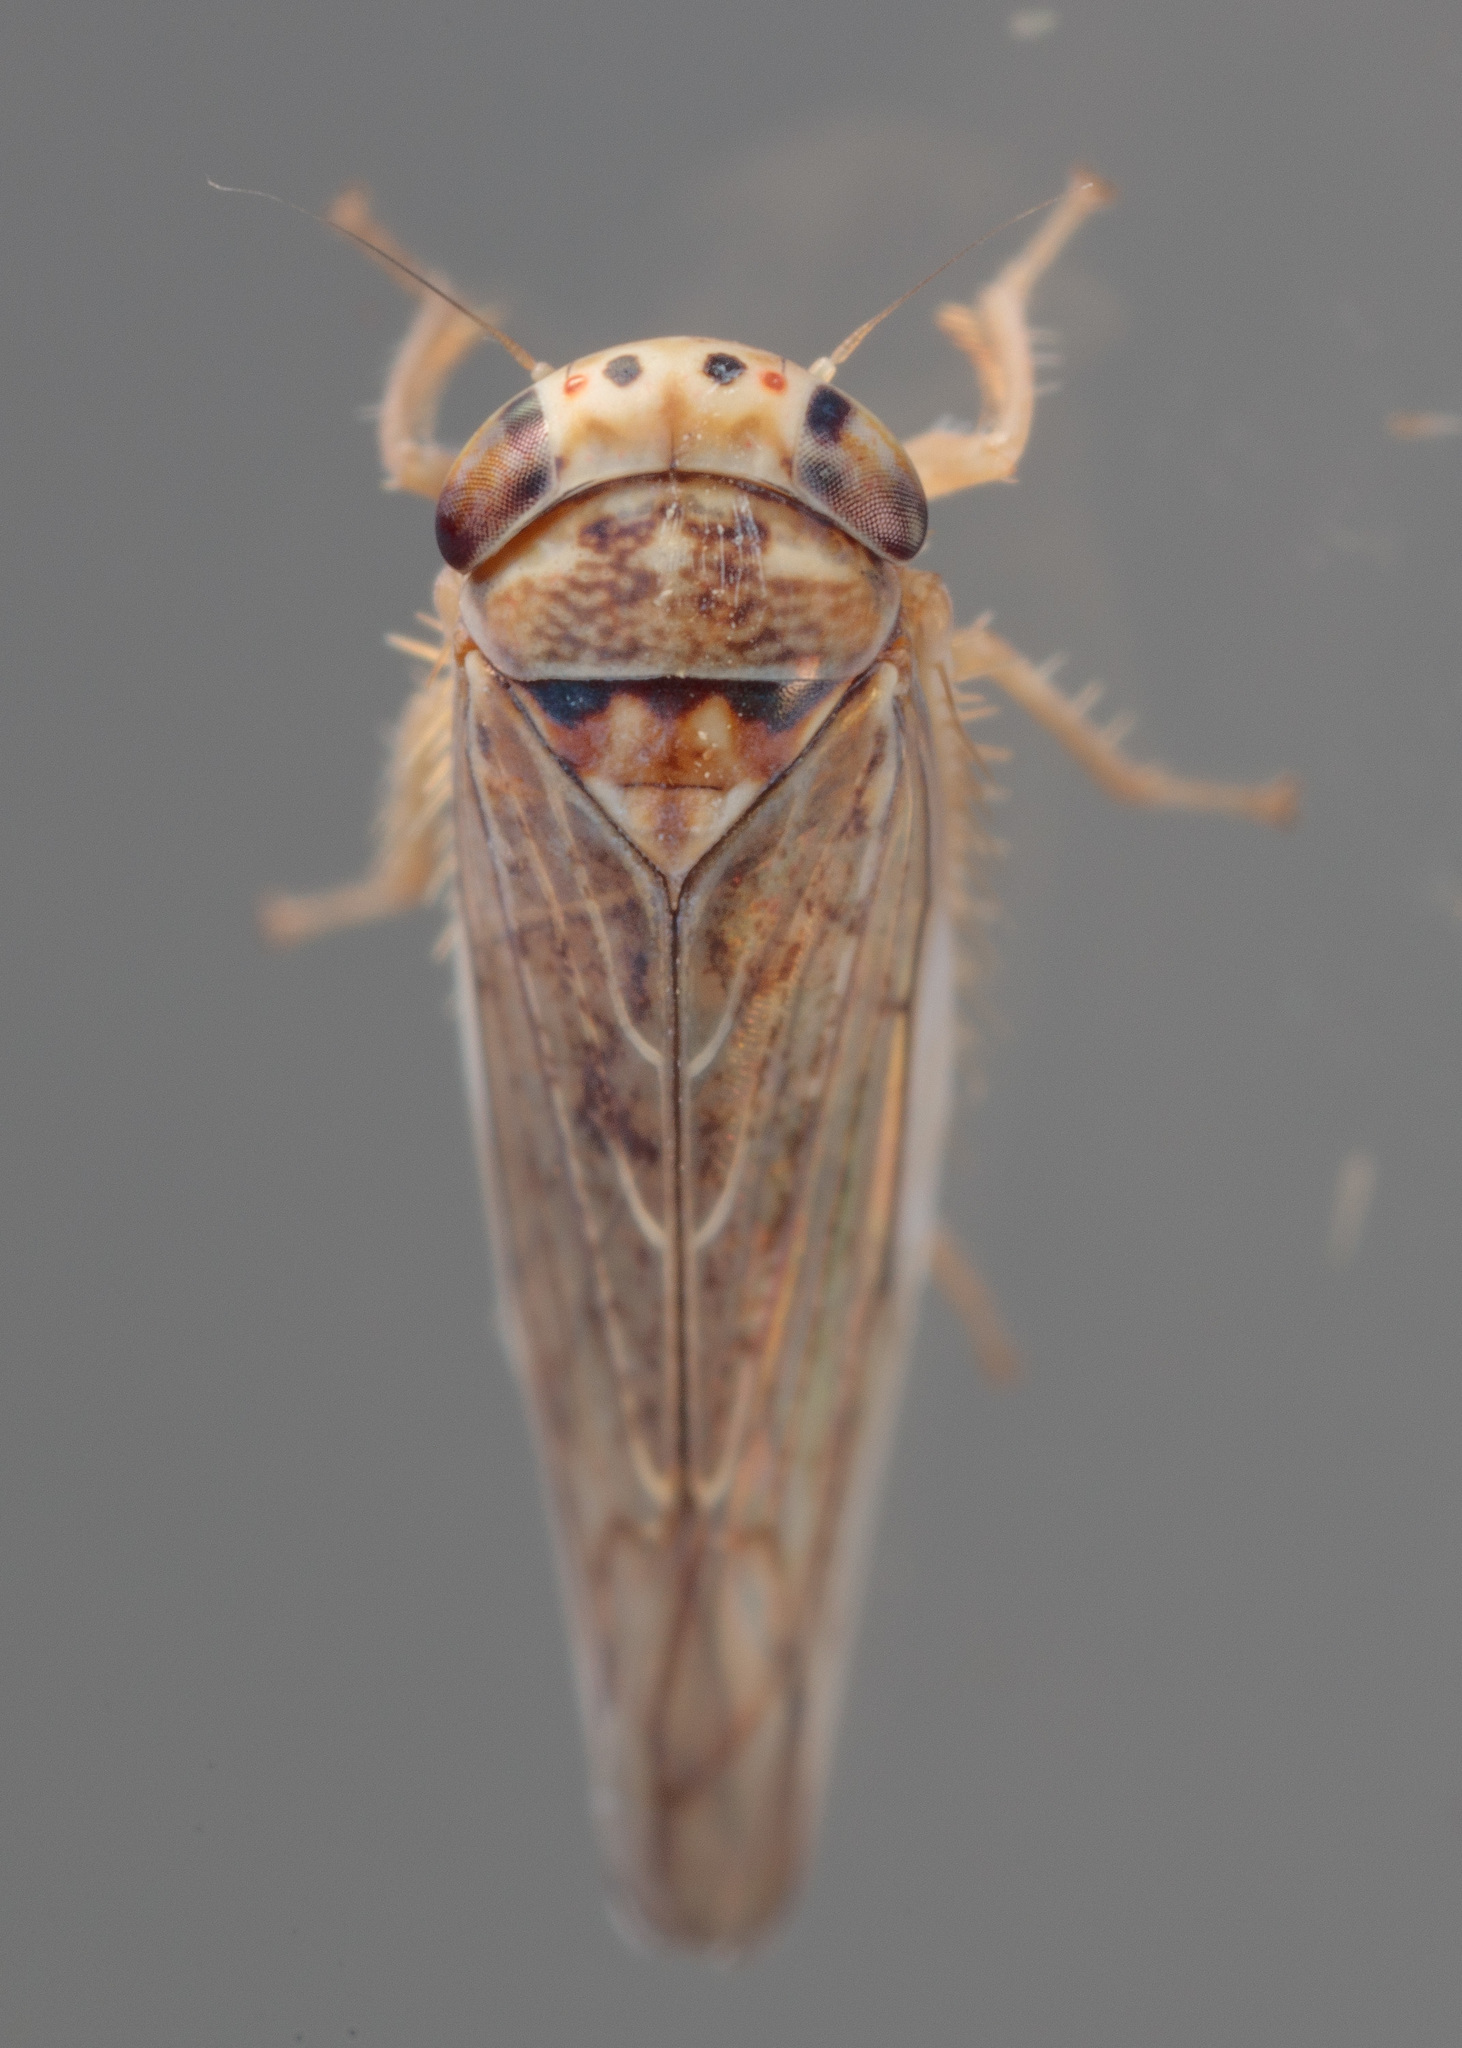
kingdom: Animalia
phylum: Arthropoda
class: Insecta
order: Hemiptera
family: Cicadellidae
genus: Bonneyana
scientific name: Bonneyana osborni
